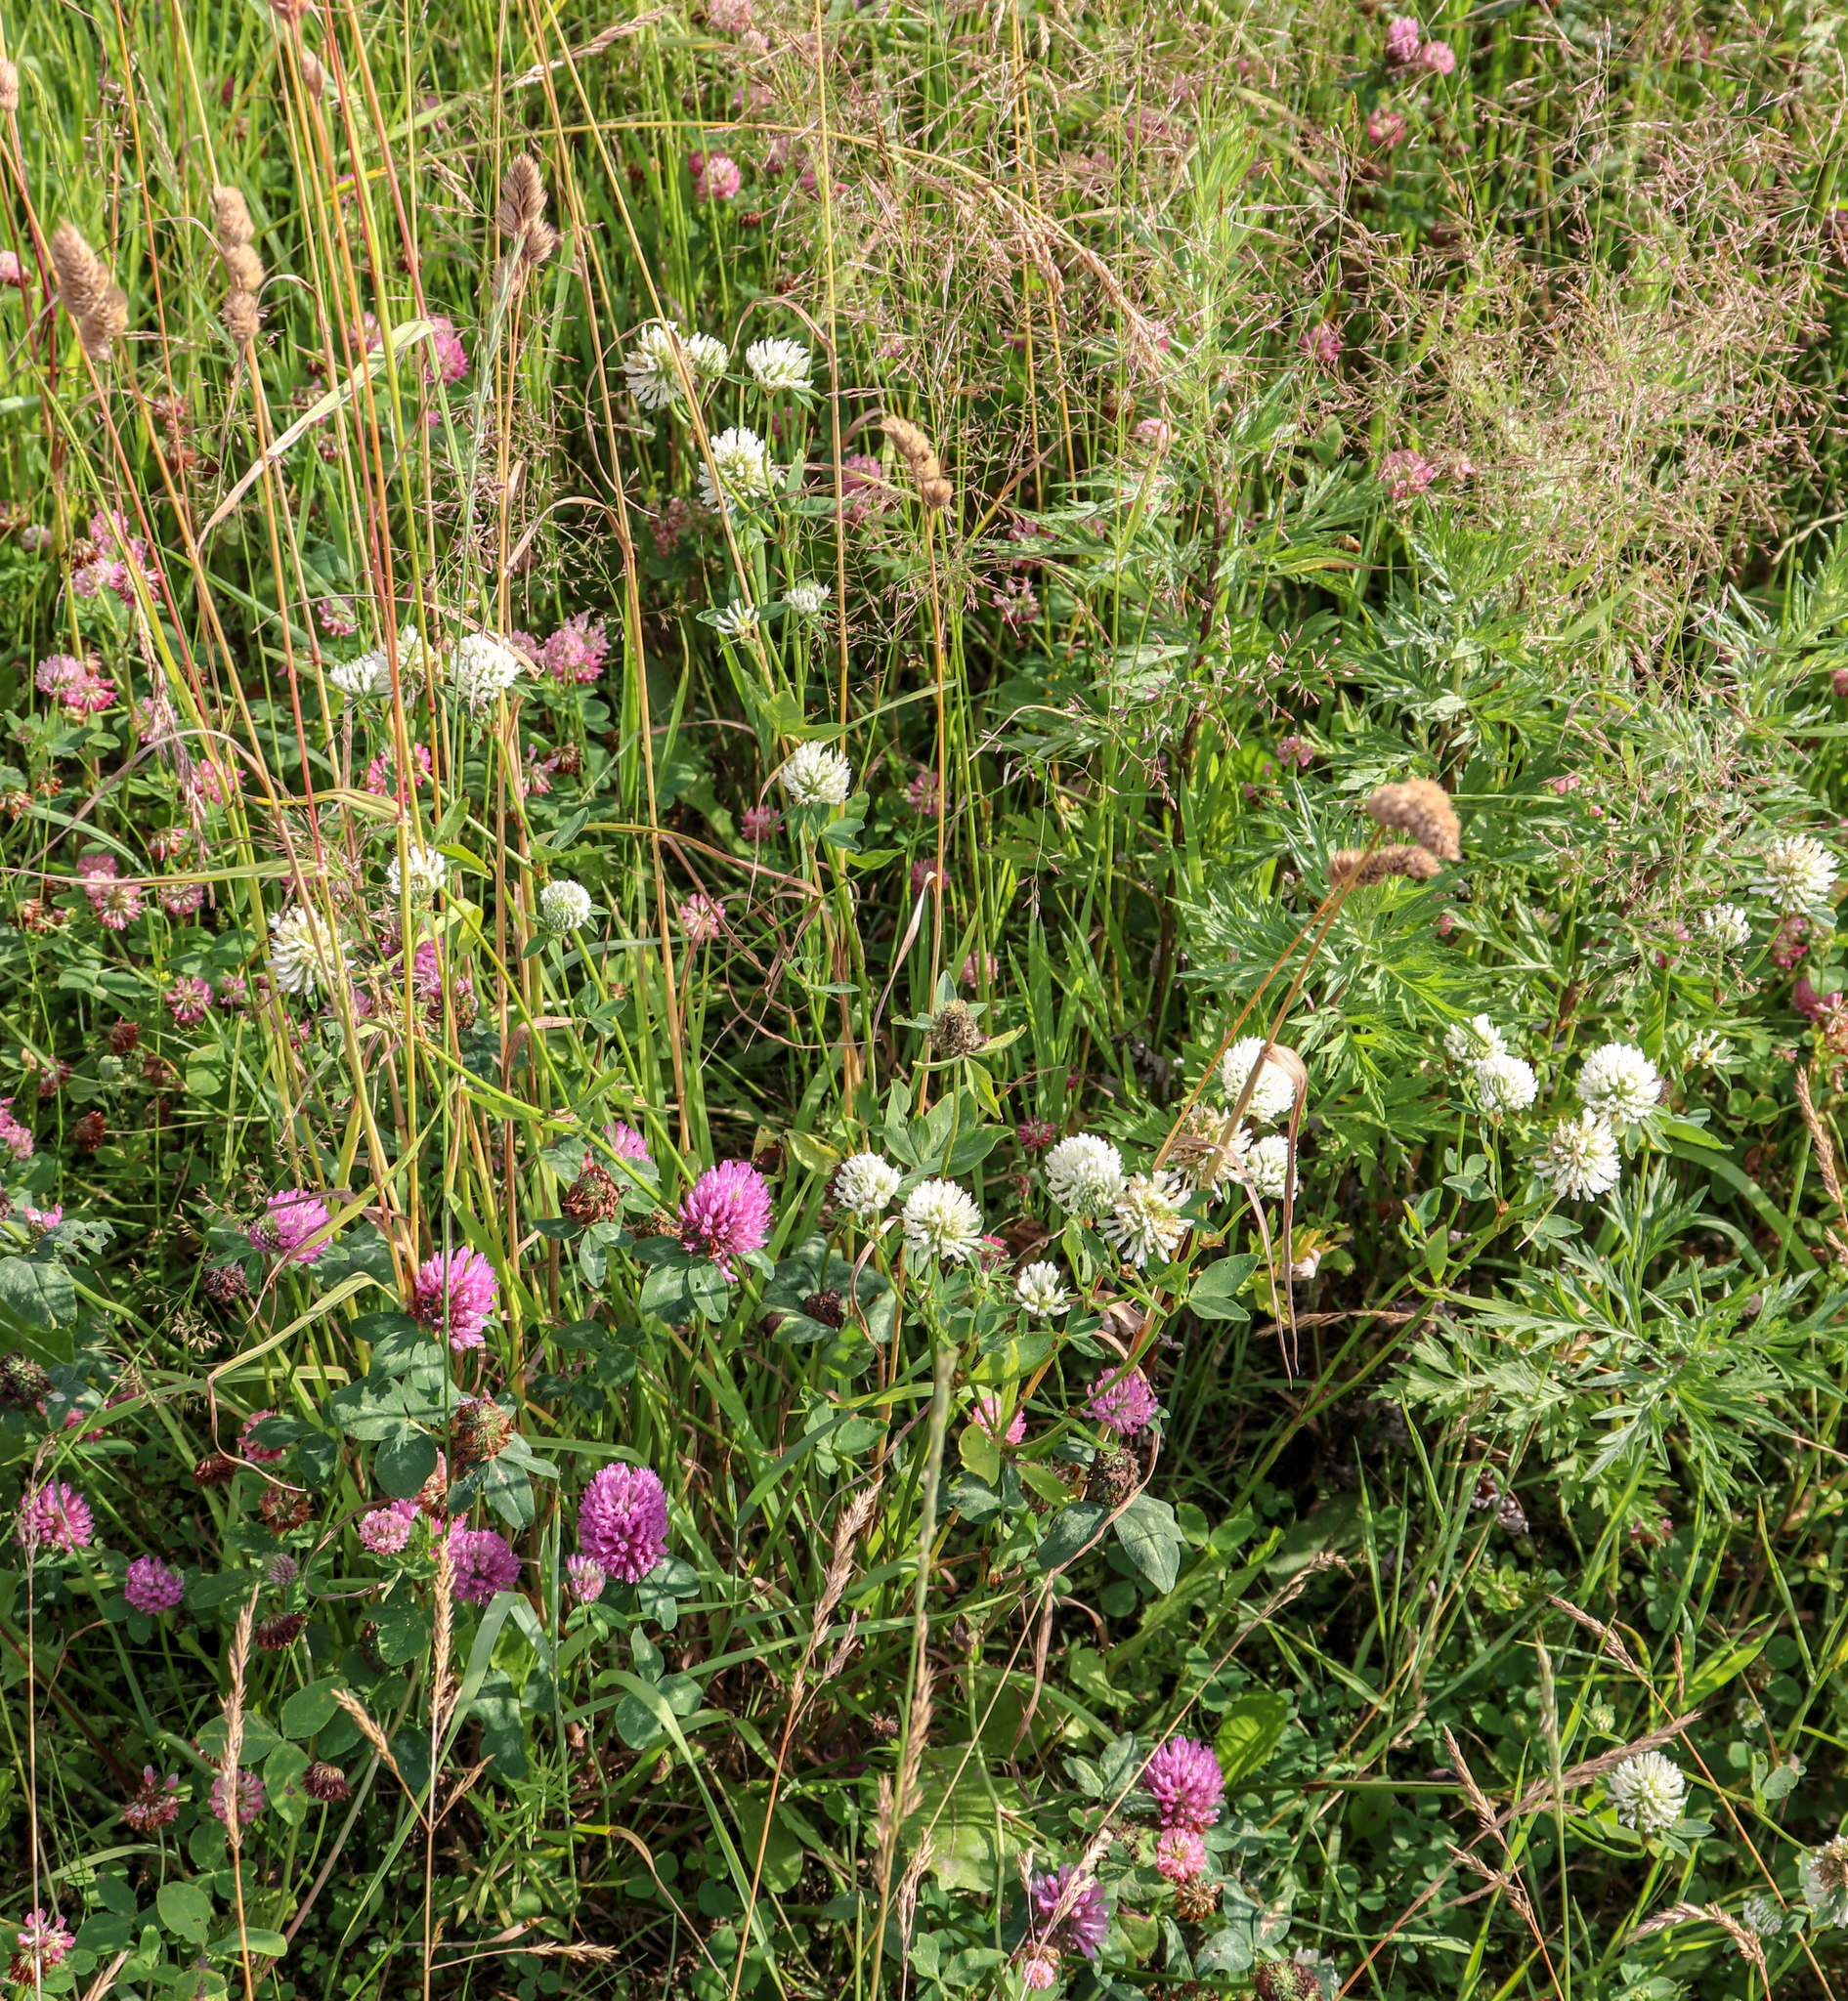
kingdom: Plantae
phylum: Tracheophyta
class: Magnoliopsida
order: Fabales
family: Fabaceae
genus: Trifolium
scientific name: Trifolium pratense
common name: Red clover
